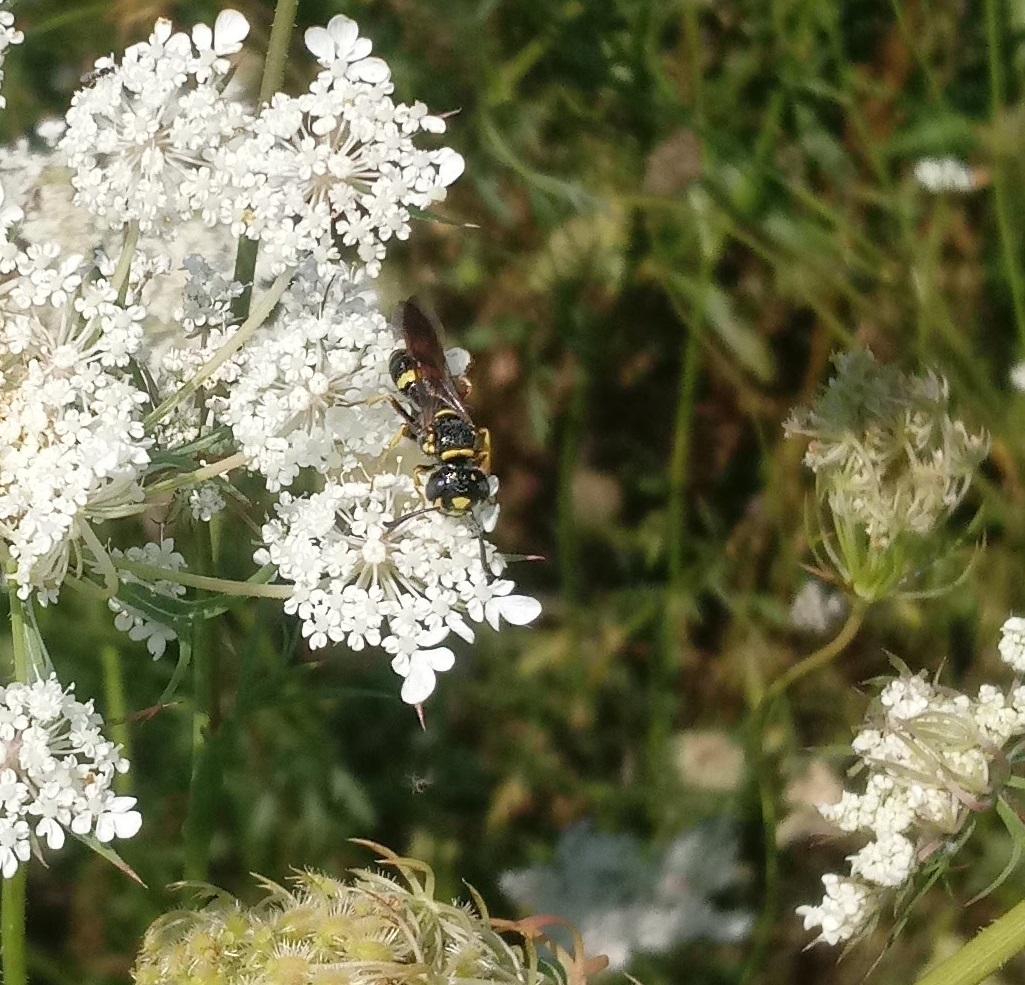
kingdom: Animalia
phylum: Arthropoda
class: Insecta
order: Hymenoptera
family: Crabronidae
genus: Philanthus
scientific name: Philanthus gibbosus
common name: Humped beewolf
